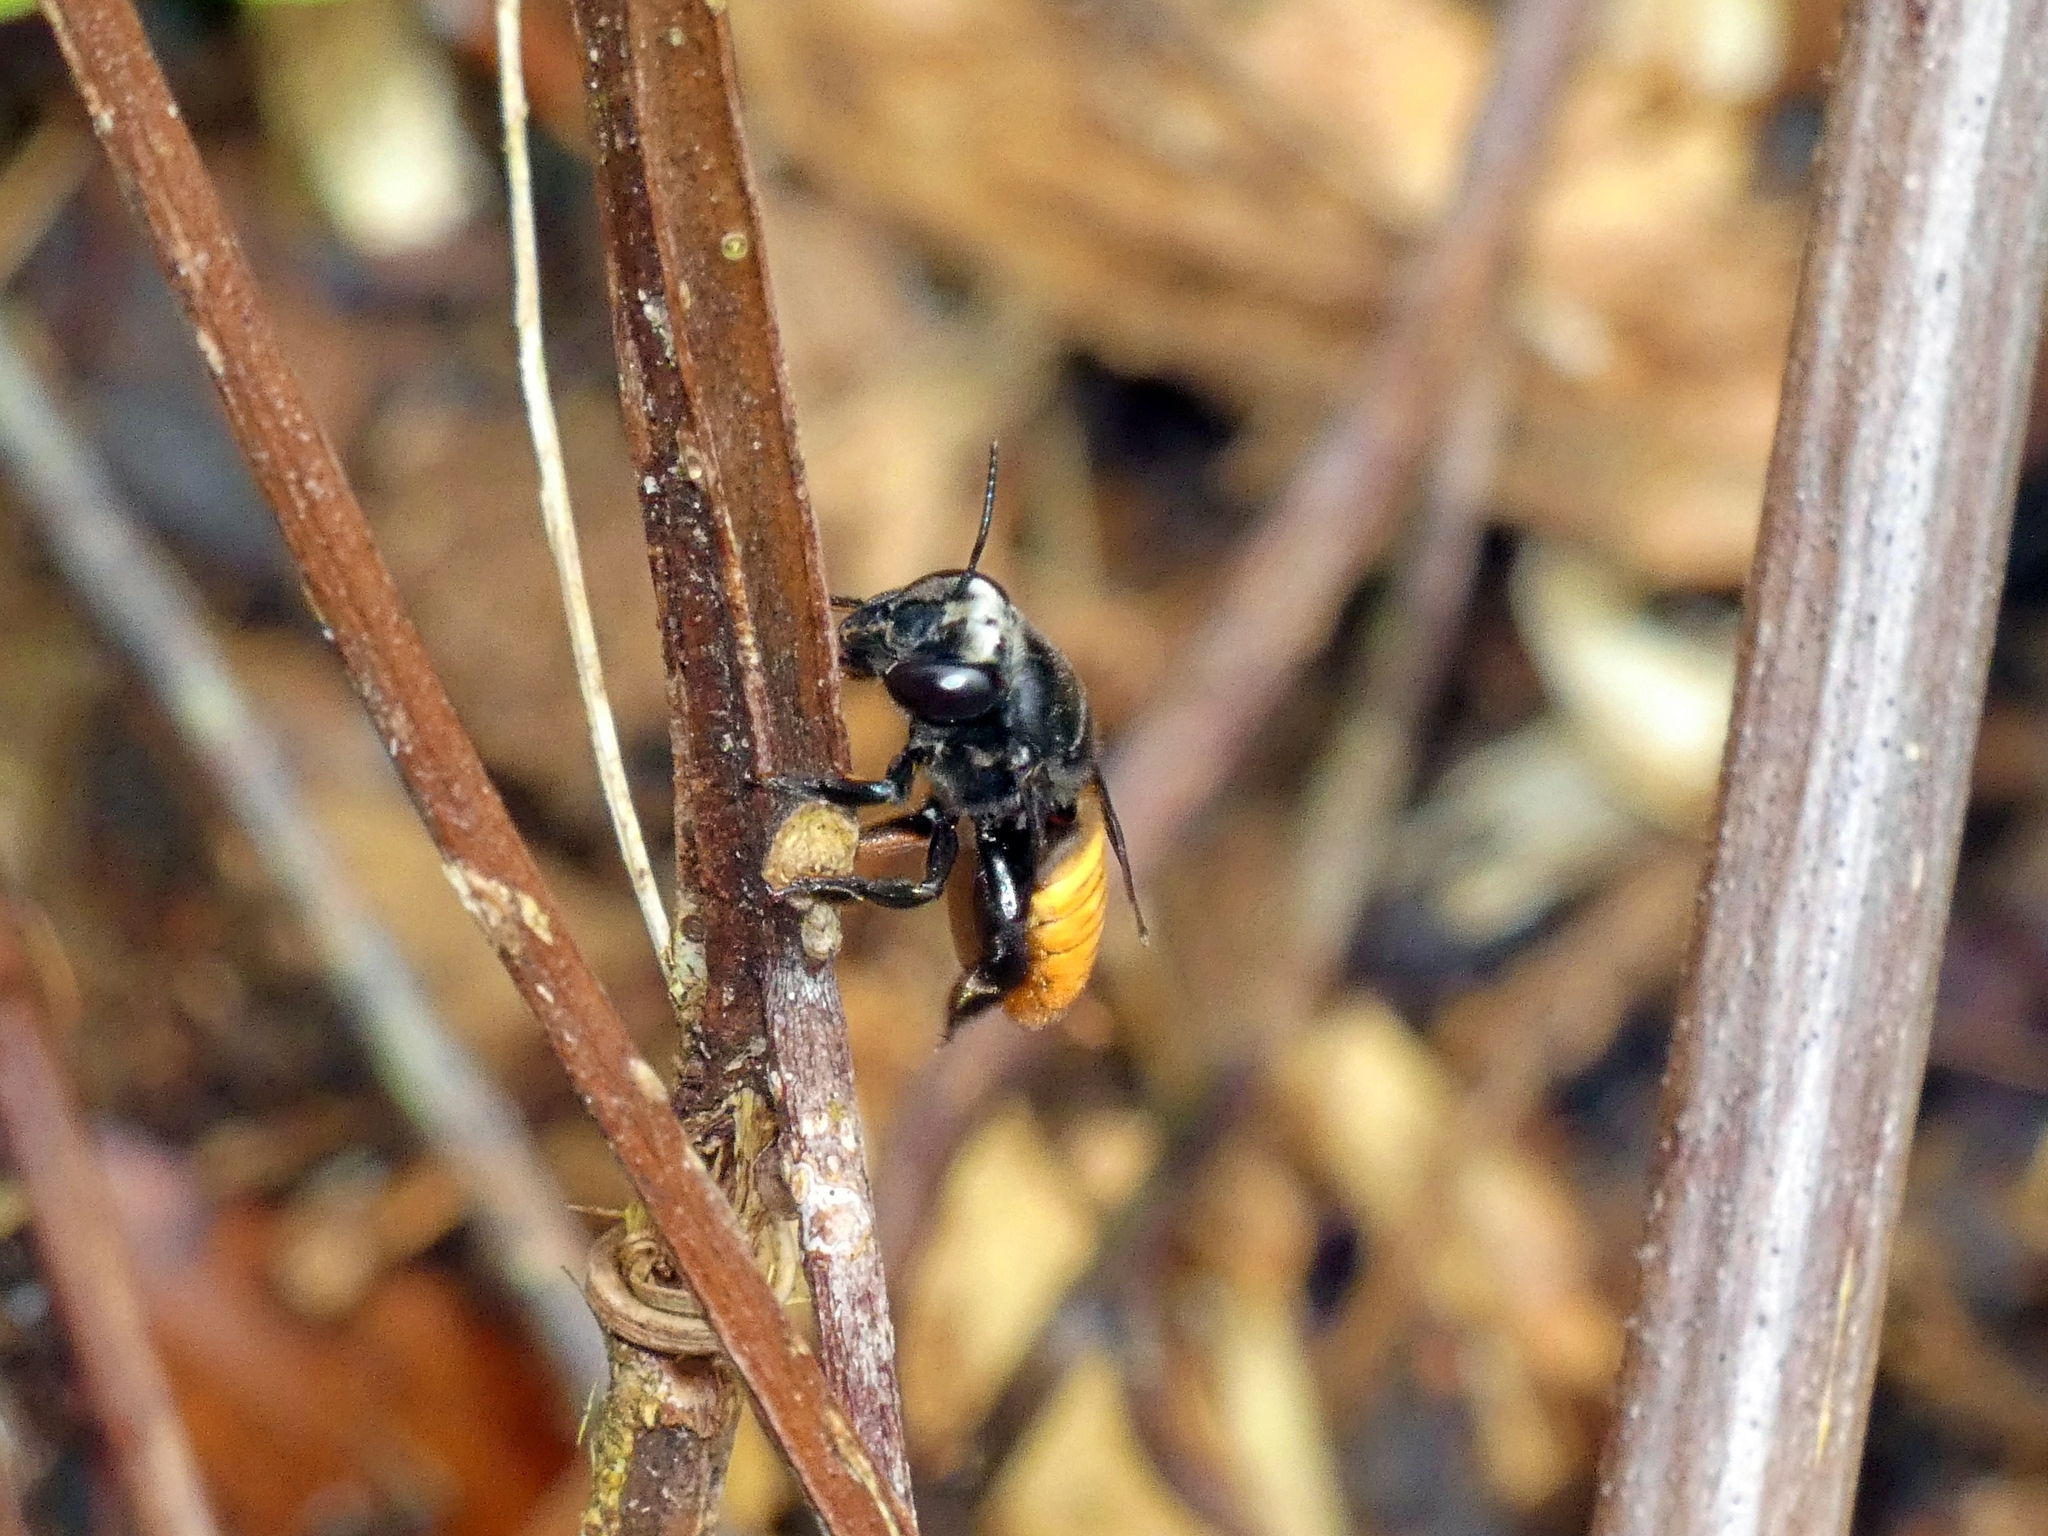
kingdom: Animalia
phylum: Arthropoda
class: Insecta
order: Hymenoptera
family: Megachilidae
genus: Megachile
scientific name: Megachile mystacea
